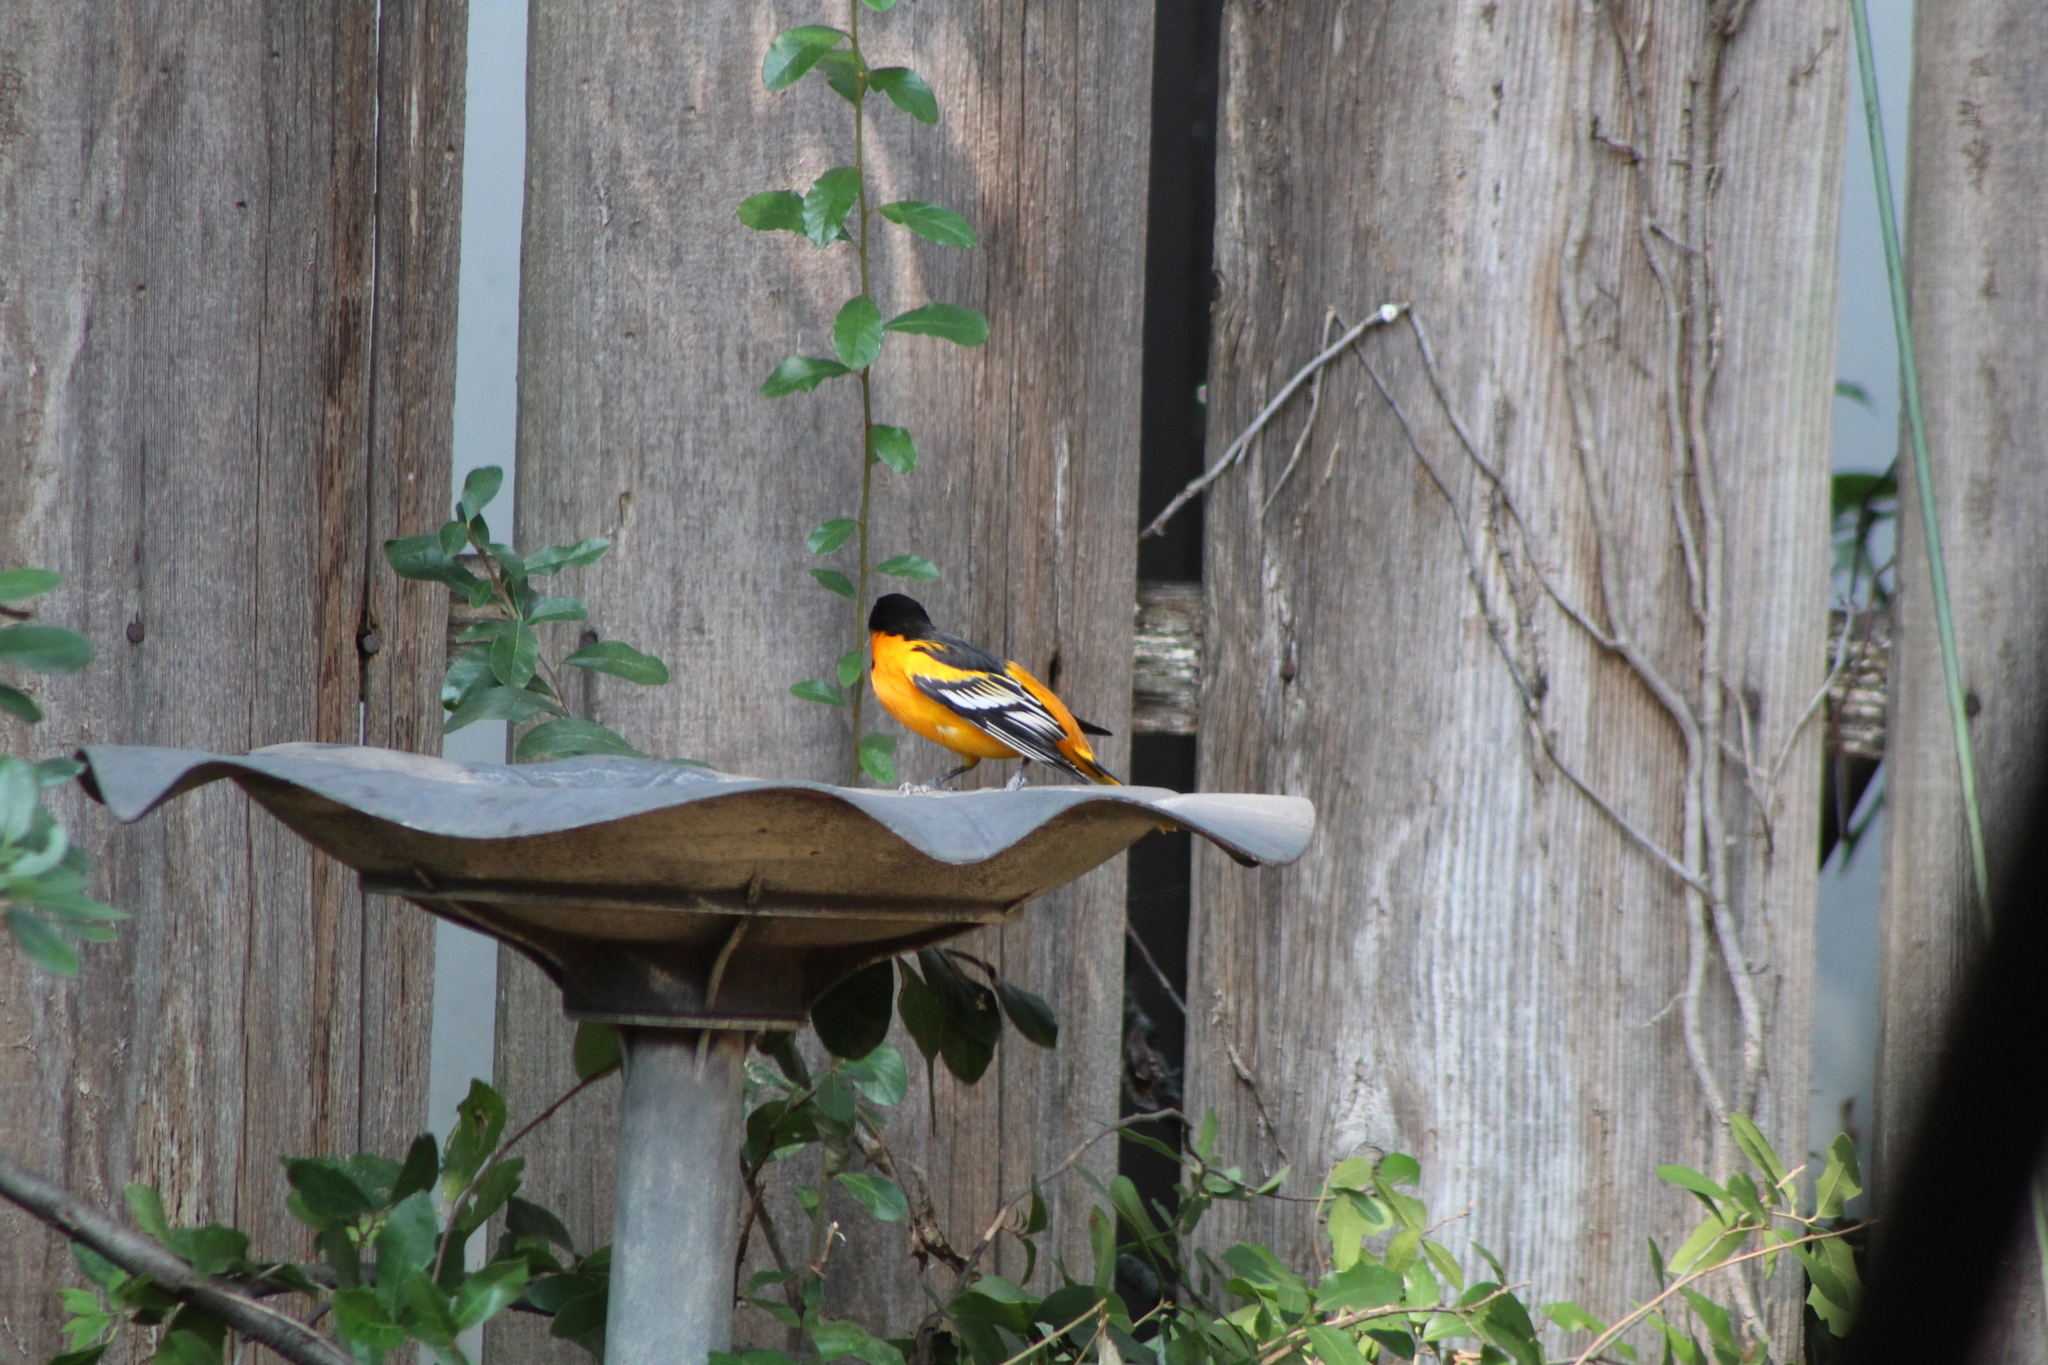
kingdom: Animalia
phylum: Chordata
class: Aves
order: Passeriformes
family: Icteridae
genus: Icterus
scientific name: Icterus galbula
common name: Baltimore oriole
